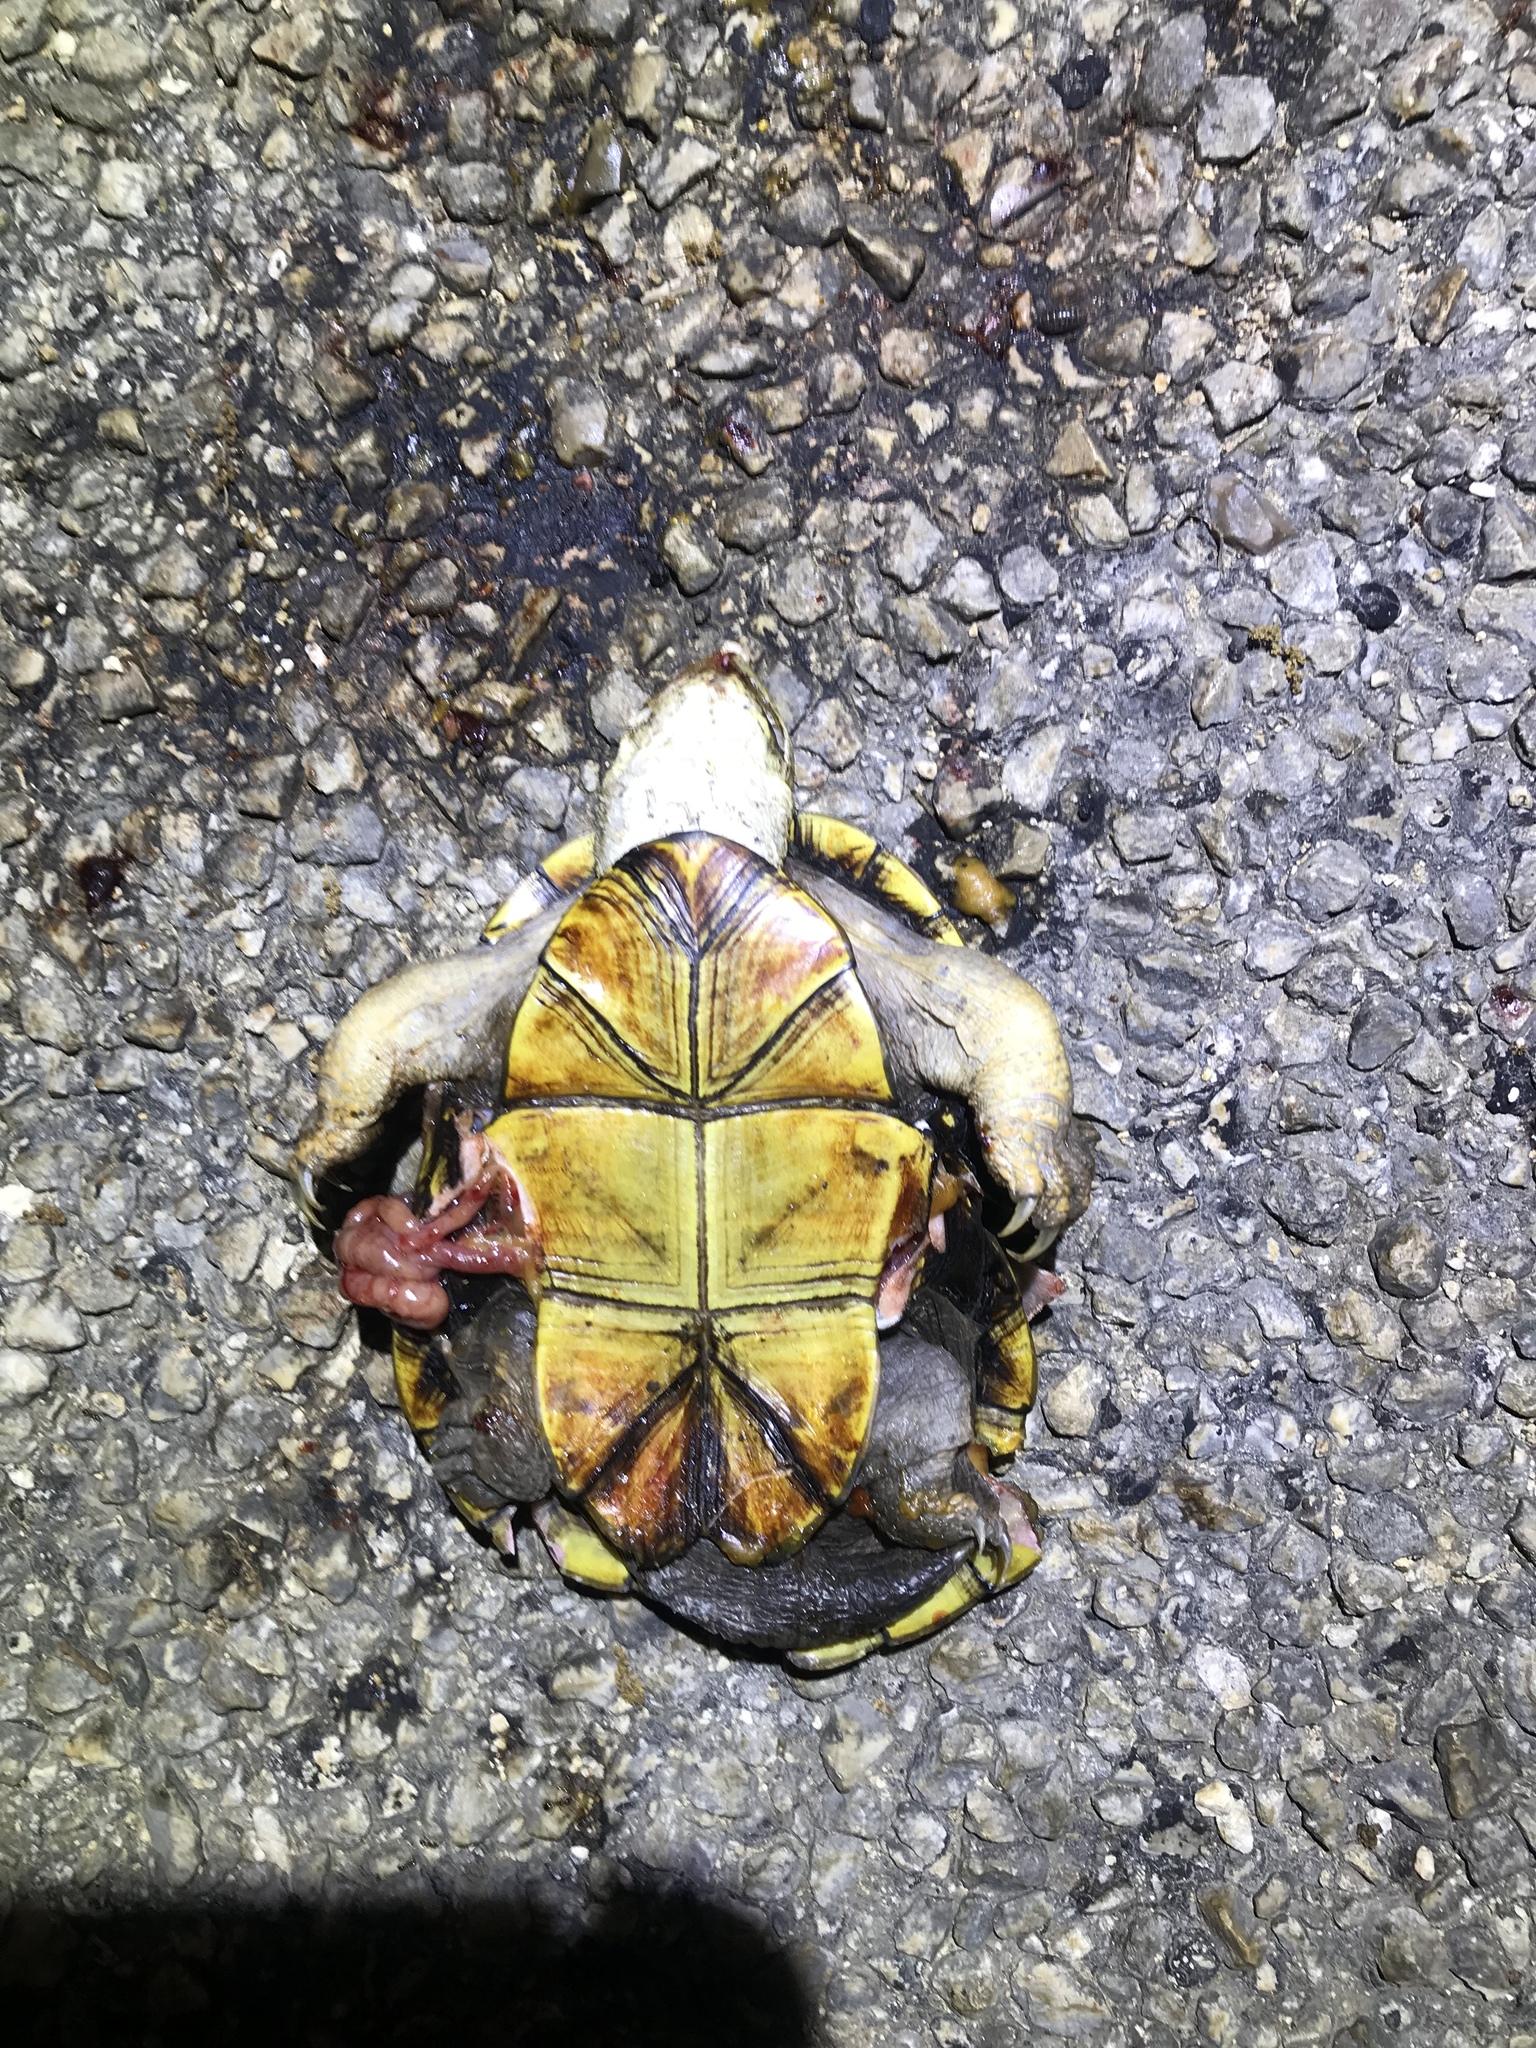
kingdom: Animalia
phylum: Chordata
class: Testudines
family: Kinosternidae
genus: Kinosternon
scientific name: Kinosternon flavescens
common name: Yellow mud turtle
